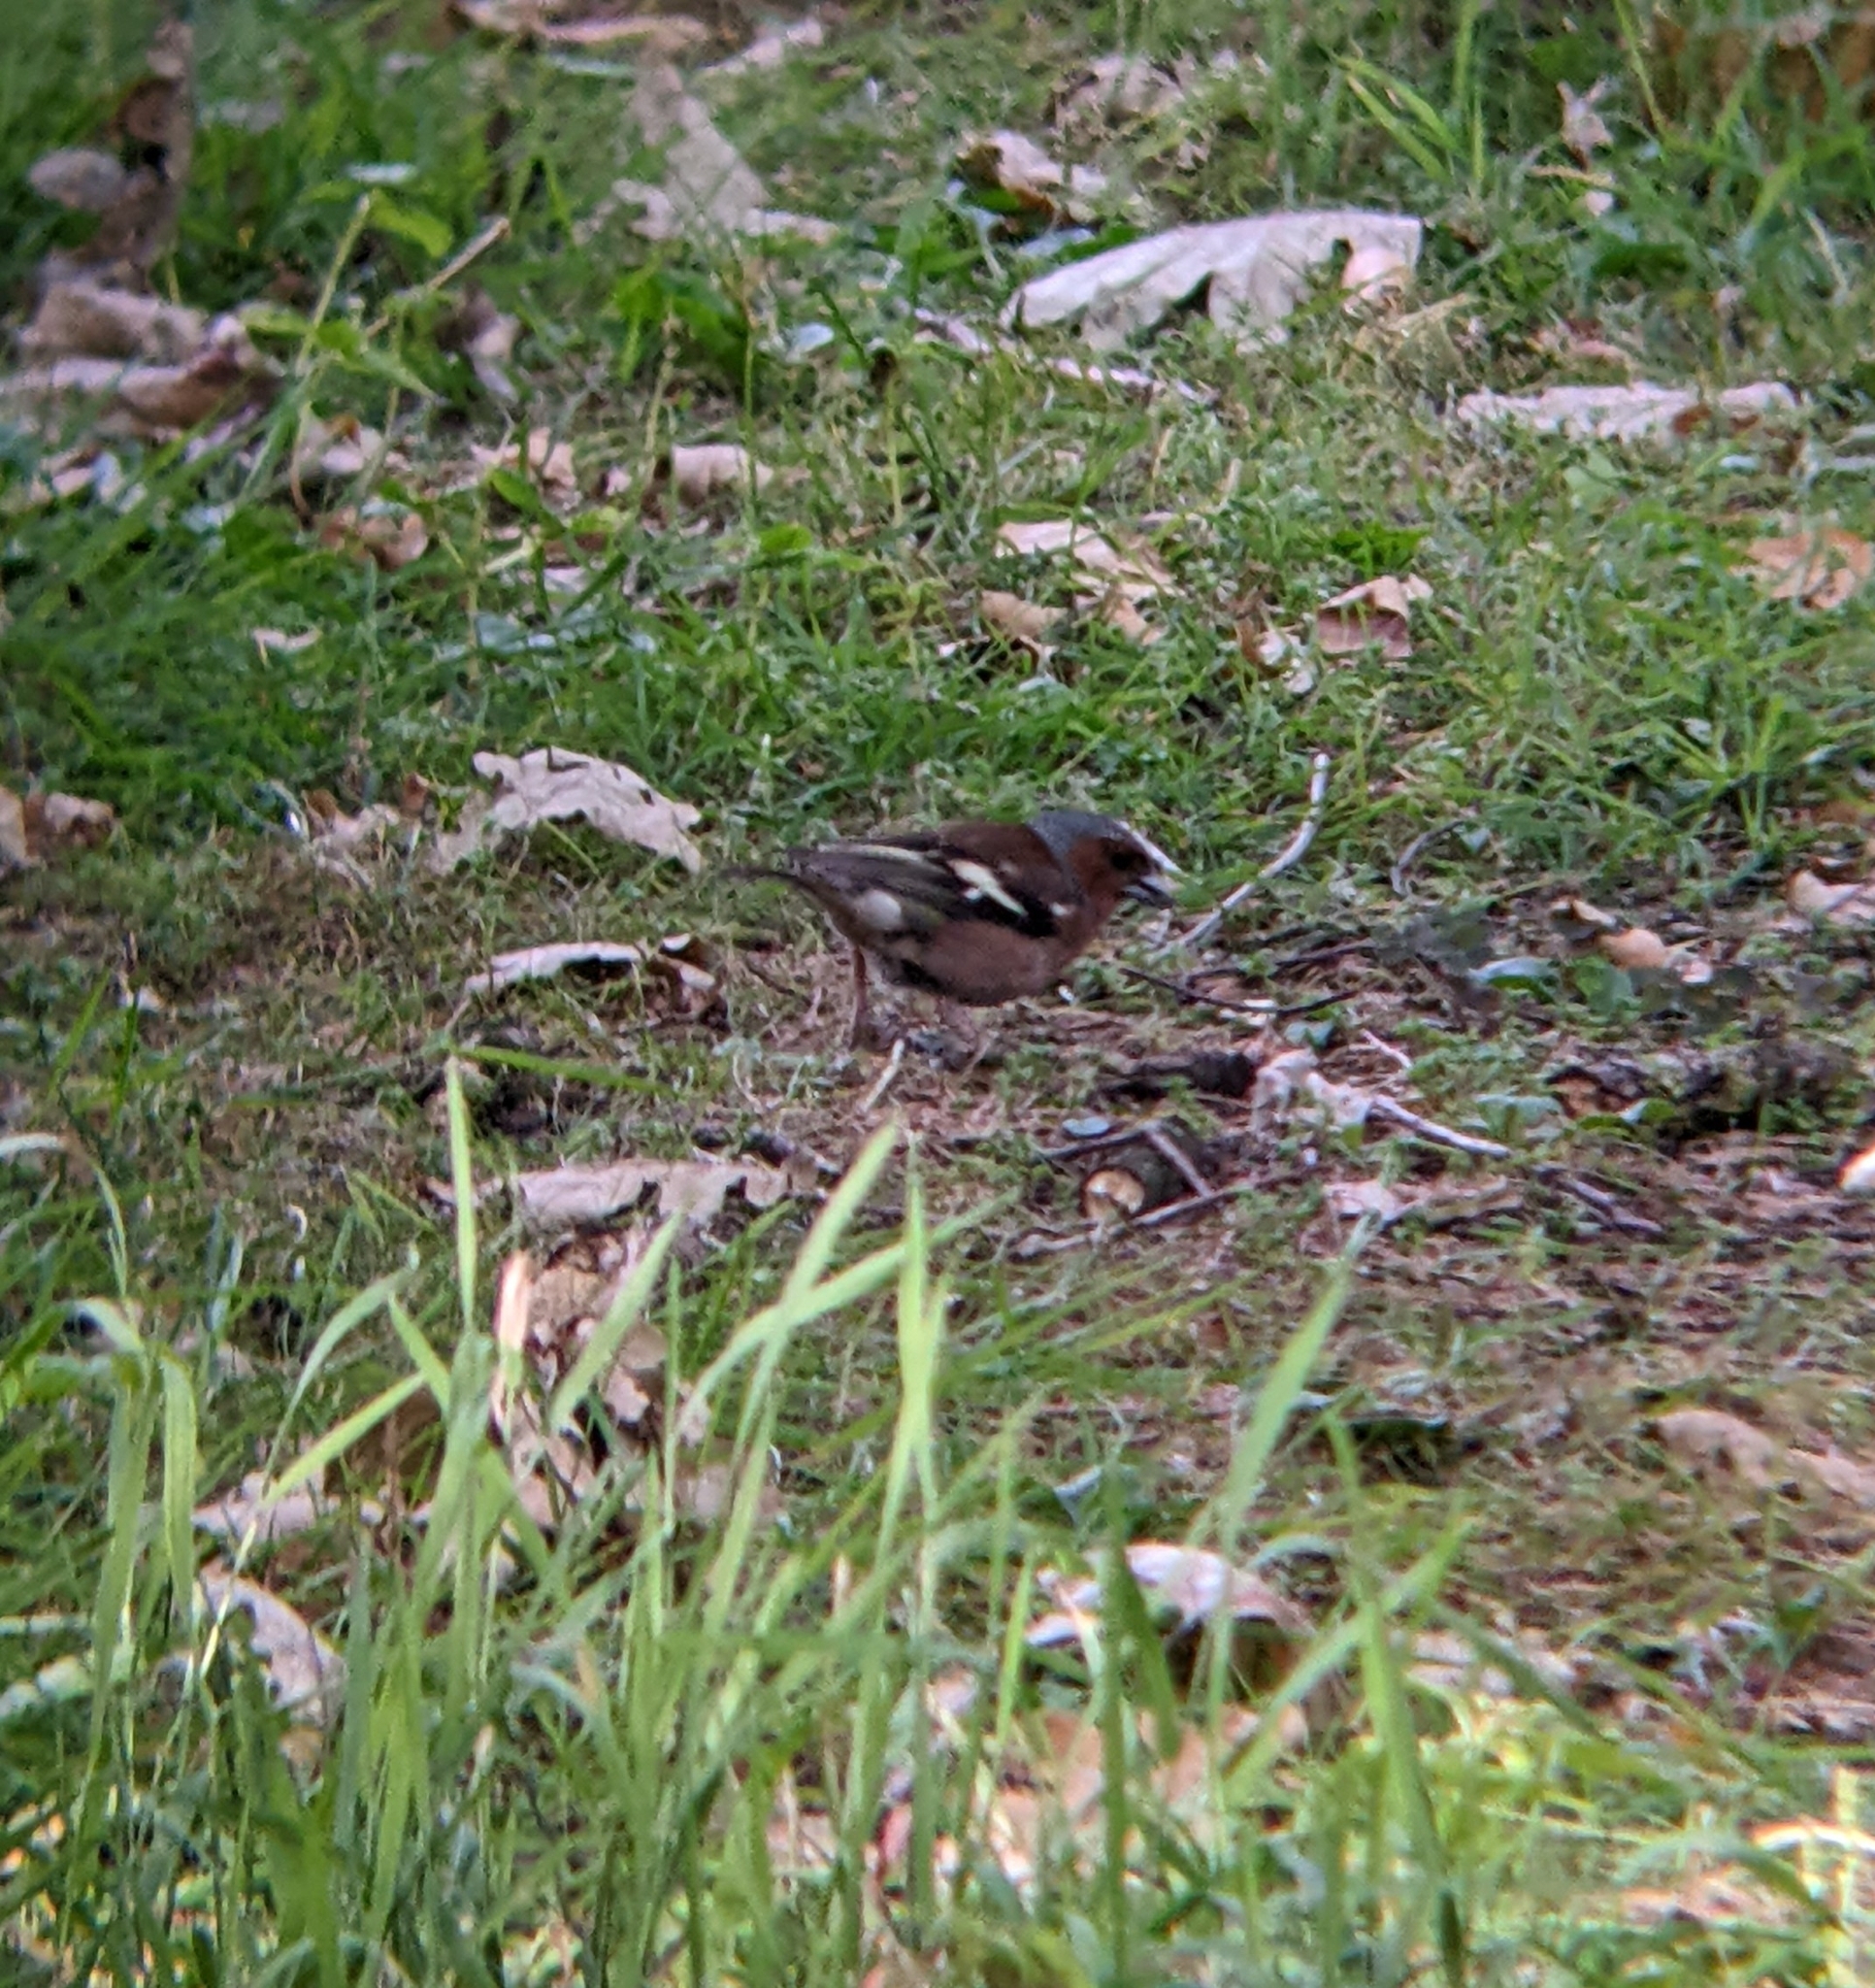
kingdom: Animalia
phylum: Chordata
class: Aves
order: Passeriformes
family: Fringillidae
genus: Fringilla
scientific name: Fringilla coelebs
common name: Common chaffinch
